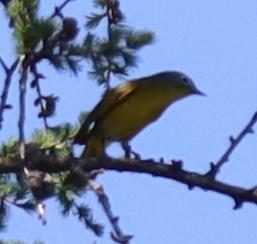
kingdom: Animalia
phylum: Chordata
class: Aves
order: Passeriformes
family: Parulidae
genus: Leiothlypis
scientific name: Leiothlypis ruficapilla
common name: Nashville warbler
